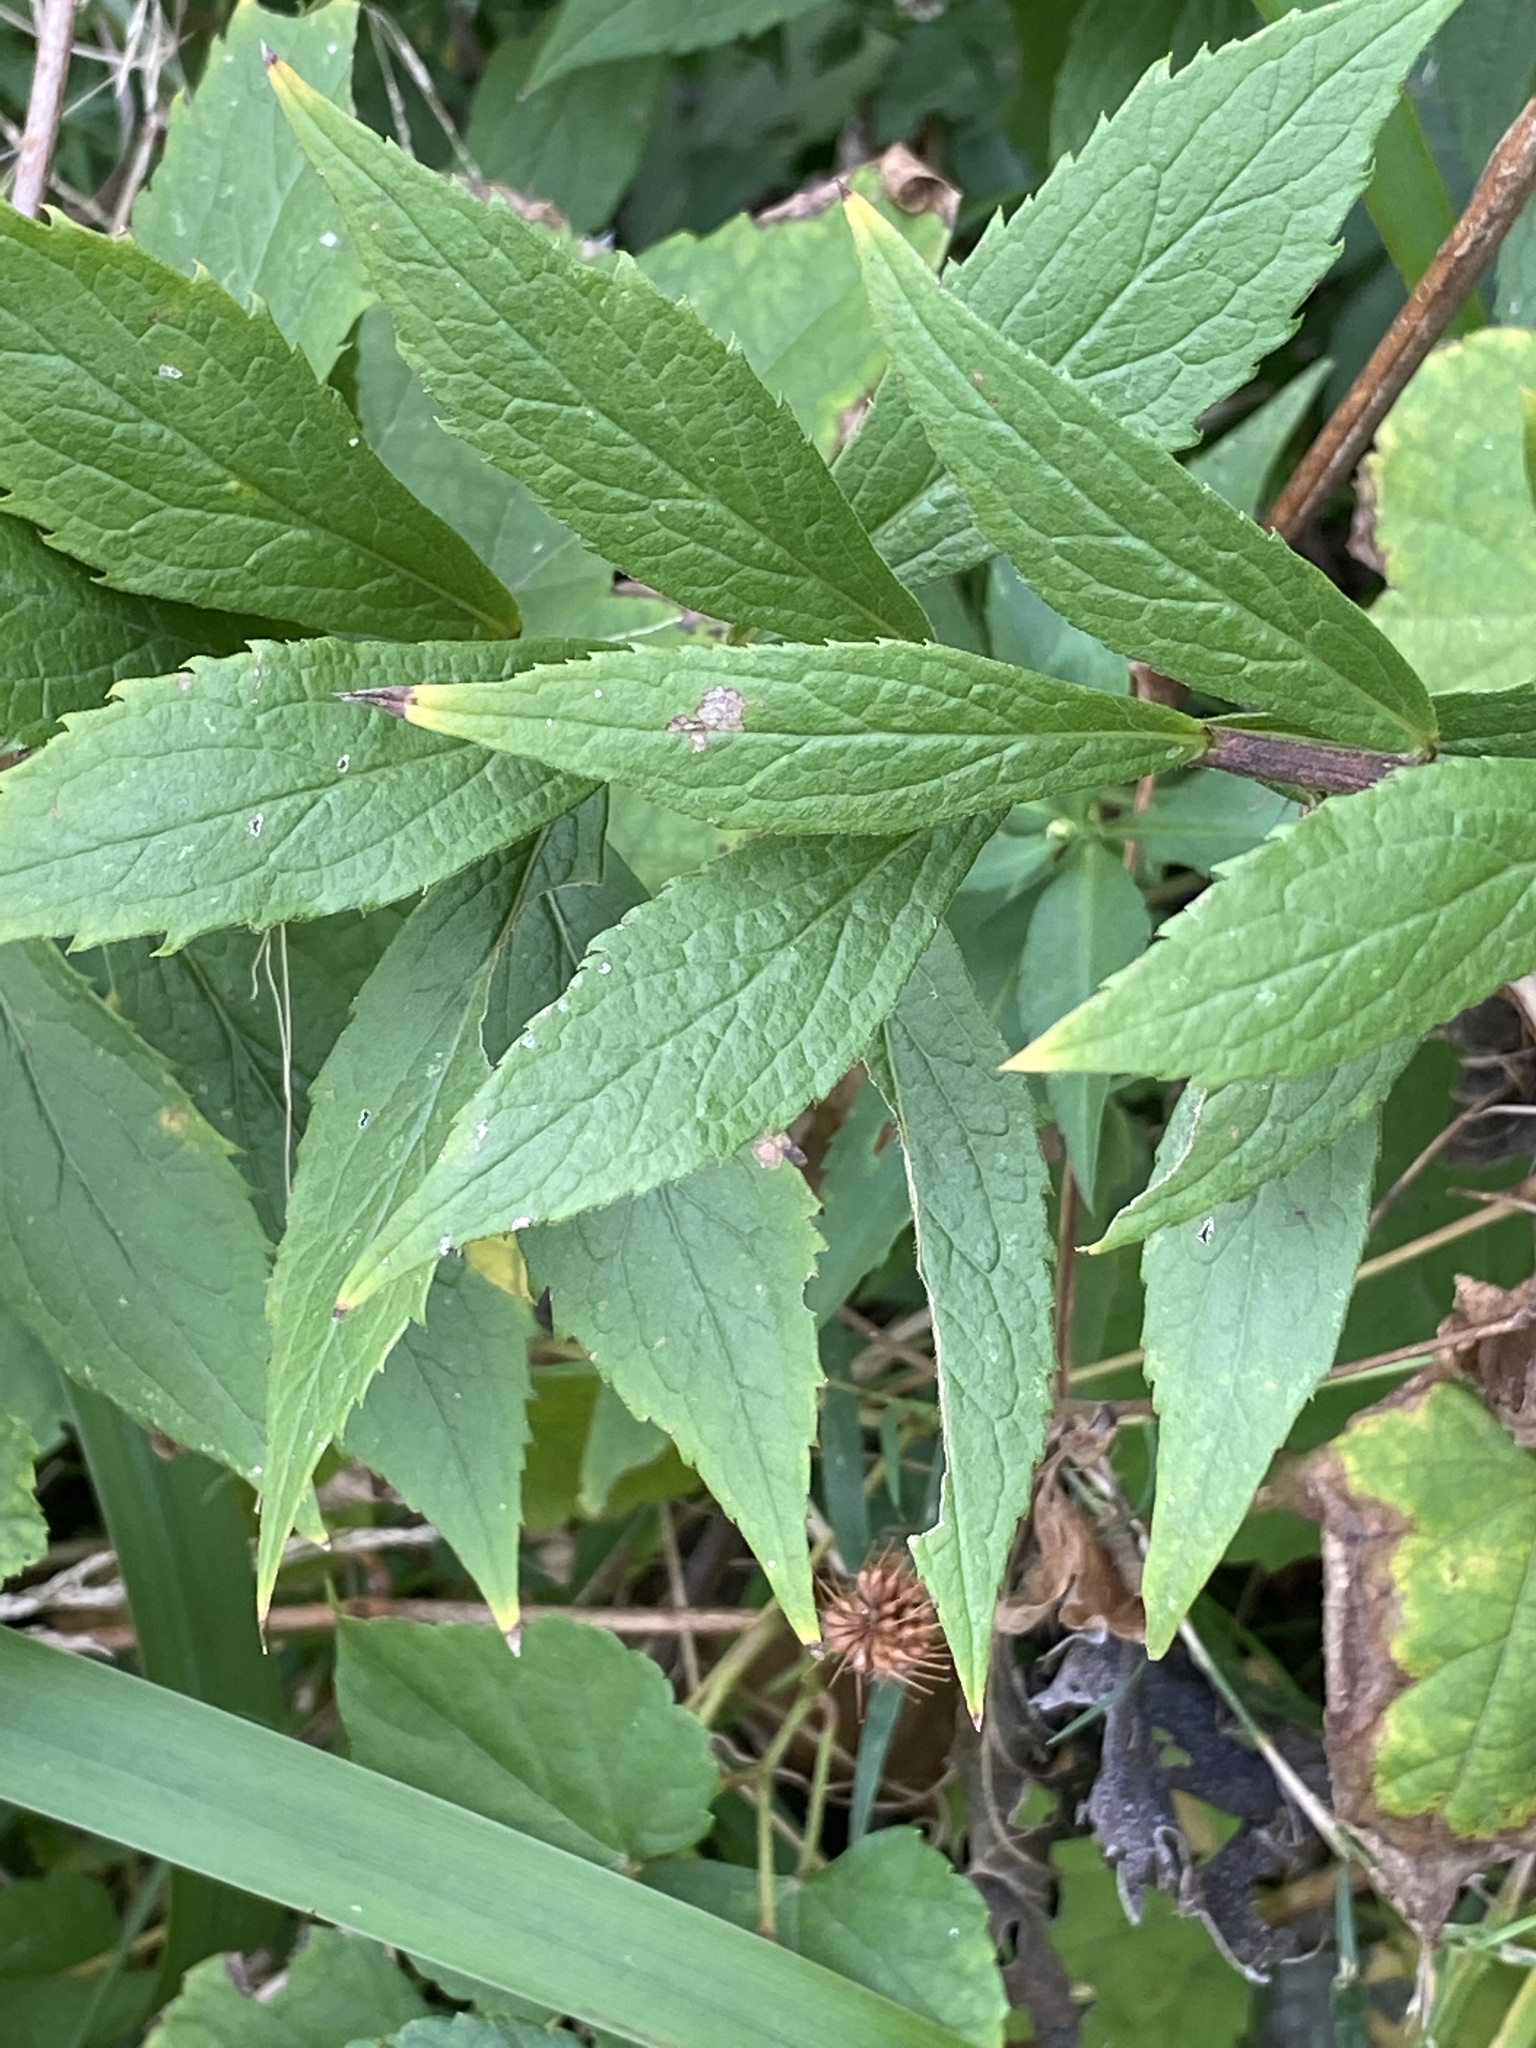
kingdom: Plantae
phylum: Tracheophyta
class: Magnoliopsida
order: Asterales
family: Asteraceae
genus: Solidago
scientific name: Solidago rugosa
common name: Rough-stemmed goldenrod
